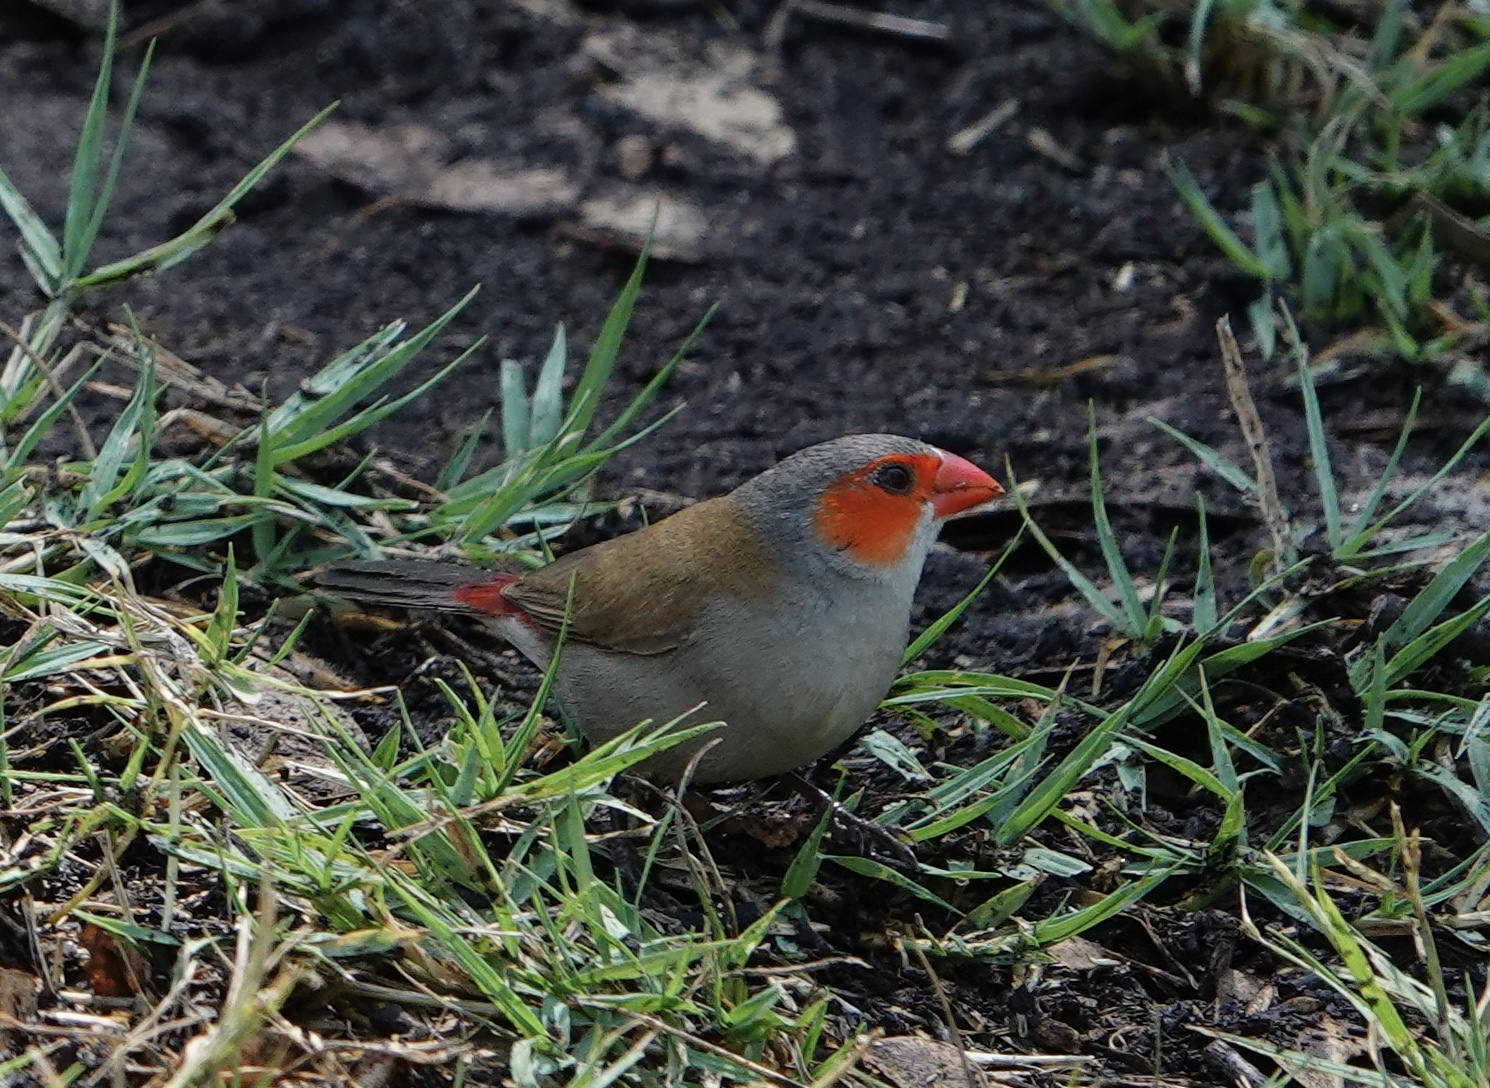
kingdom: Animalia
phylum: Chordata
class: Aves
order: Passeriformes
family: Estrildidae
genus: Estrilda
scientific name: Estrilda melpoda
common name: Orange-cheeked waxbill
